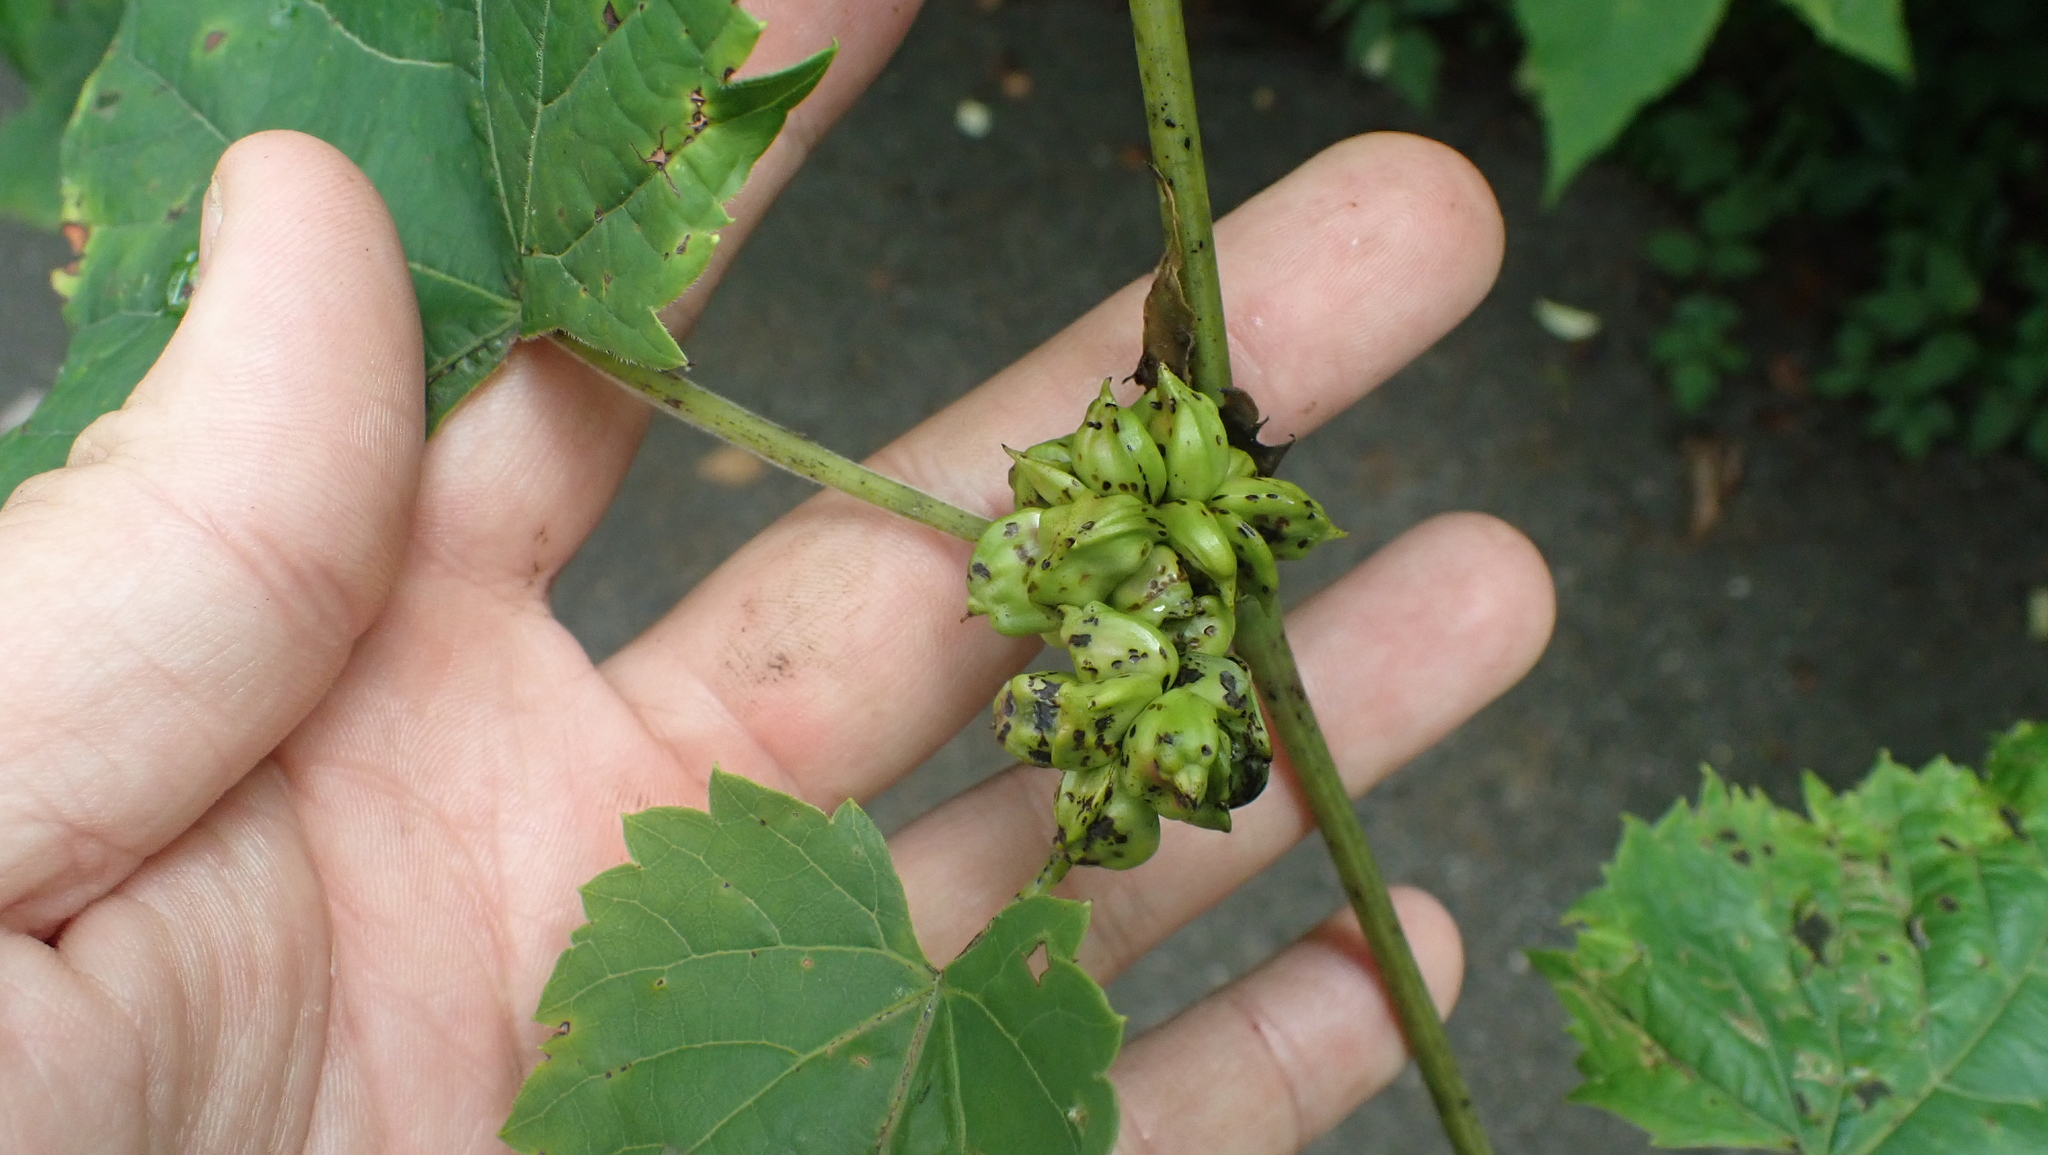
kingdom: Animalia
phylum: Arthropoda
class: Insecta
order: Diptera
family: Cecidomyiidae
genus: Ampelomyia
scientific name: Ampelomyia vitiscoryloides
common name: Grape filbert gall
